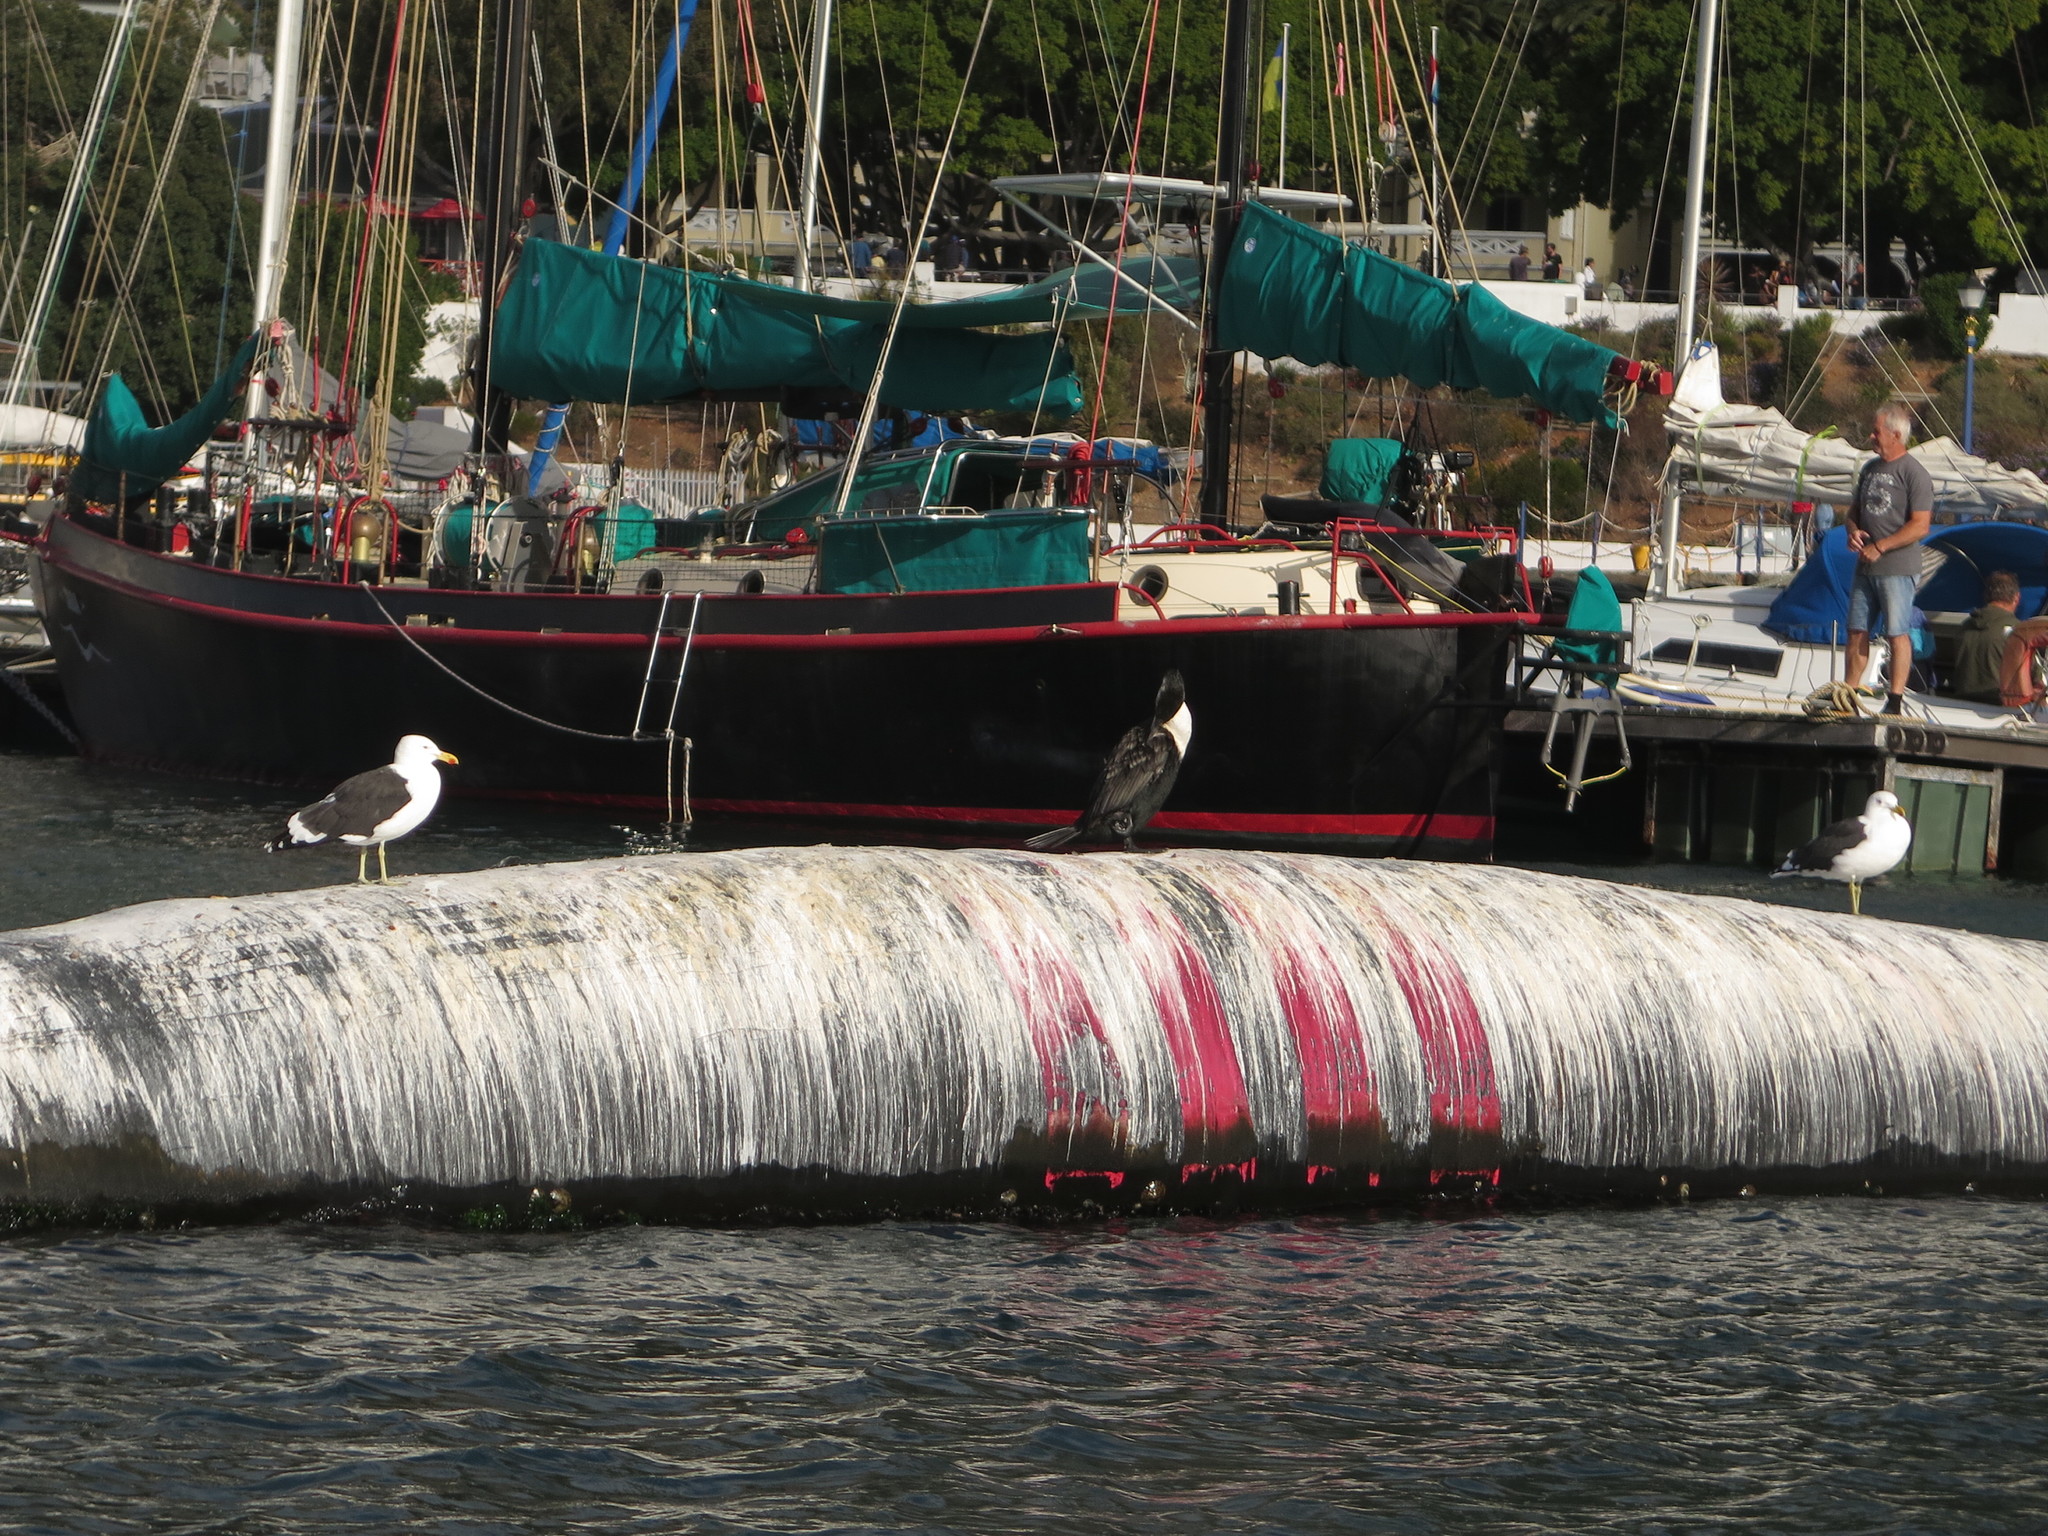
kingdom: Animalia
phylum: Chordata
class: Aves
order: Charadriiformes
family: Laridae
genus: Larus
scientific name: Larus dominicanus
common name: Kelp gull
